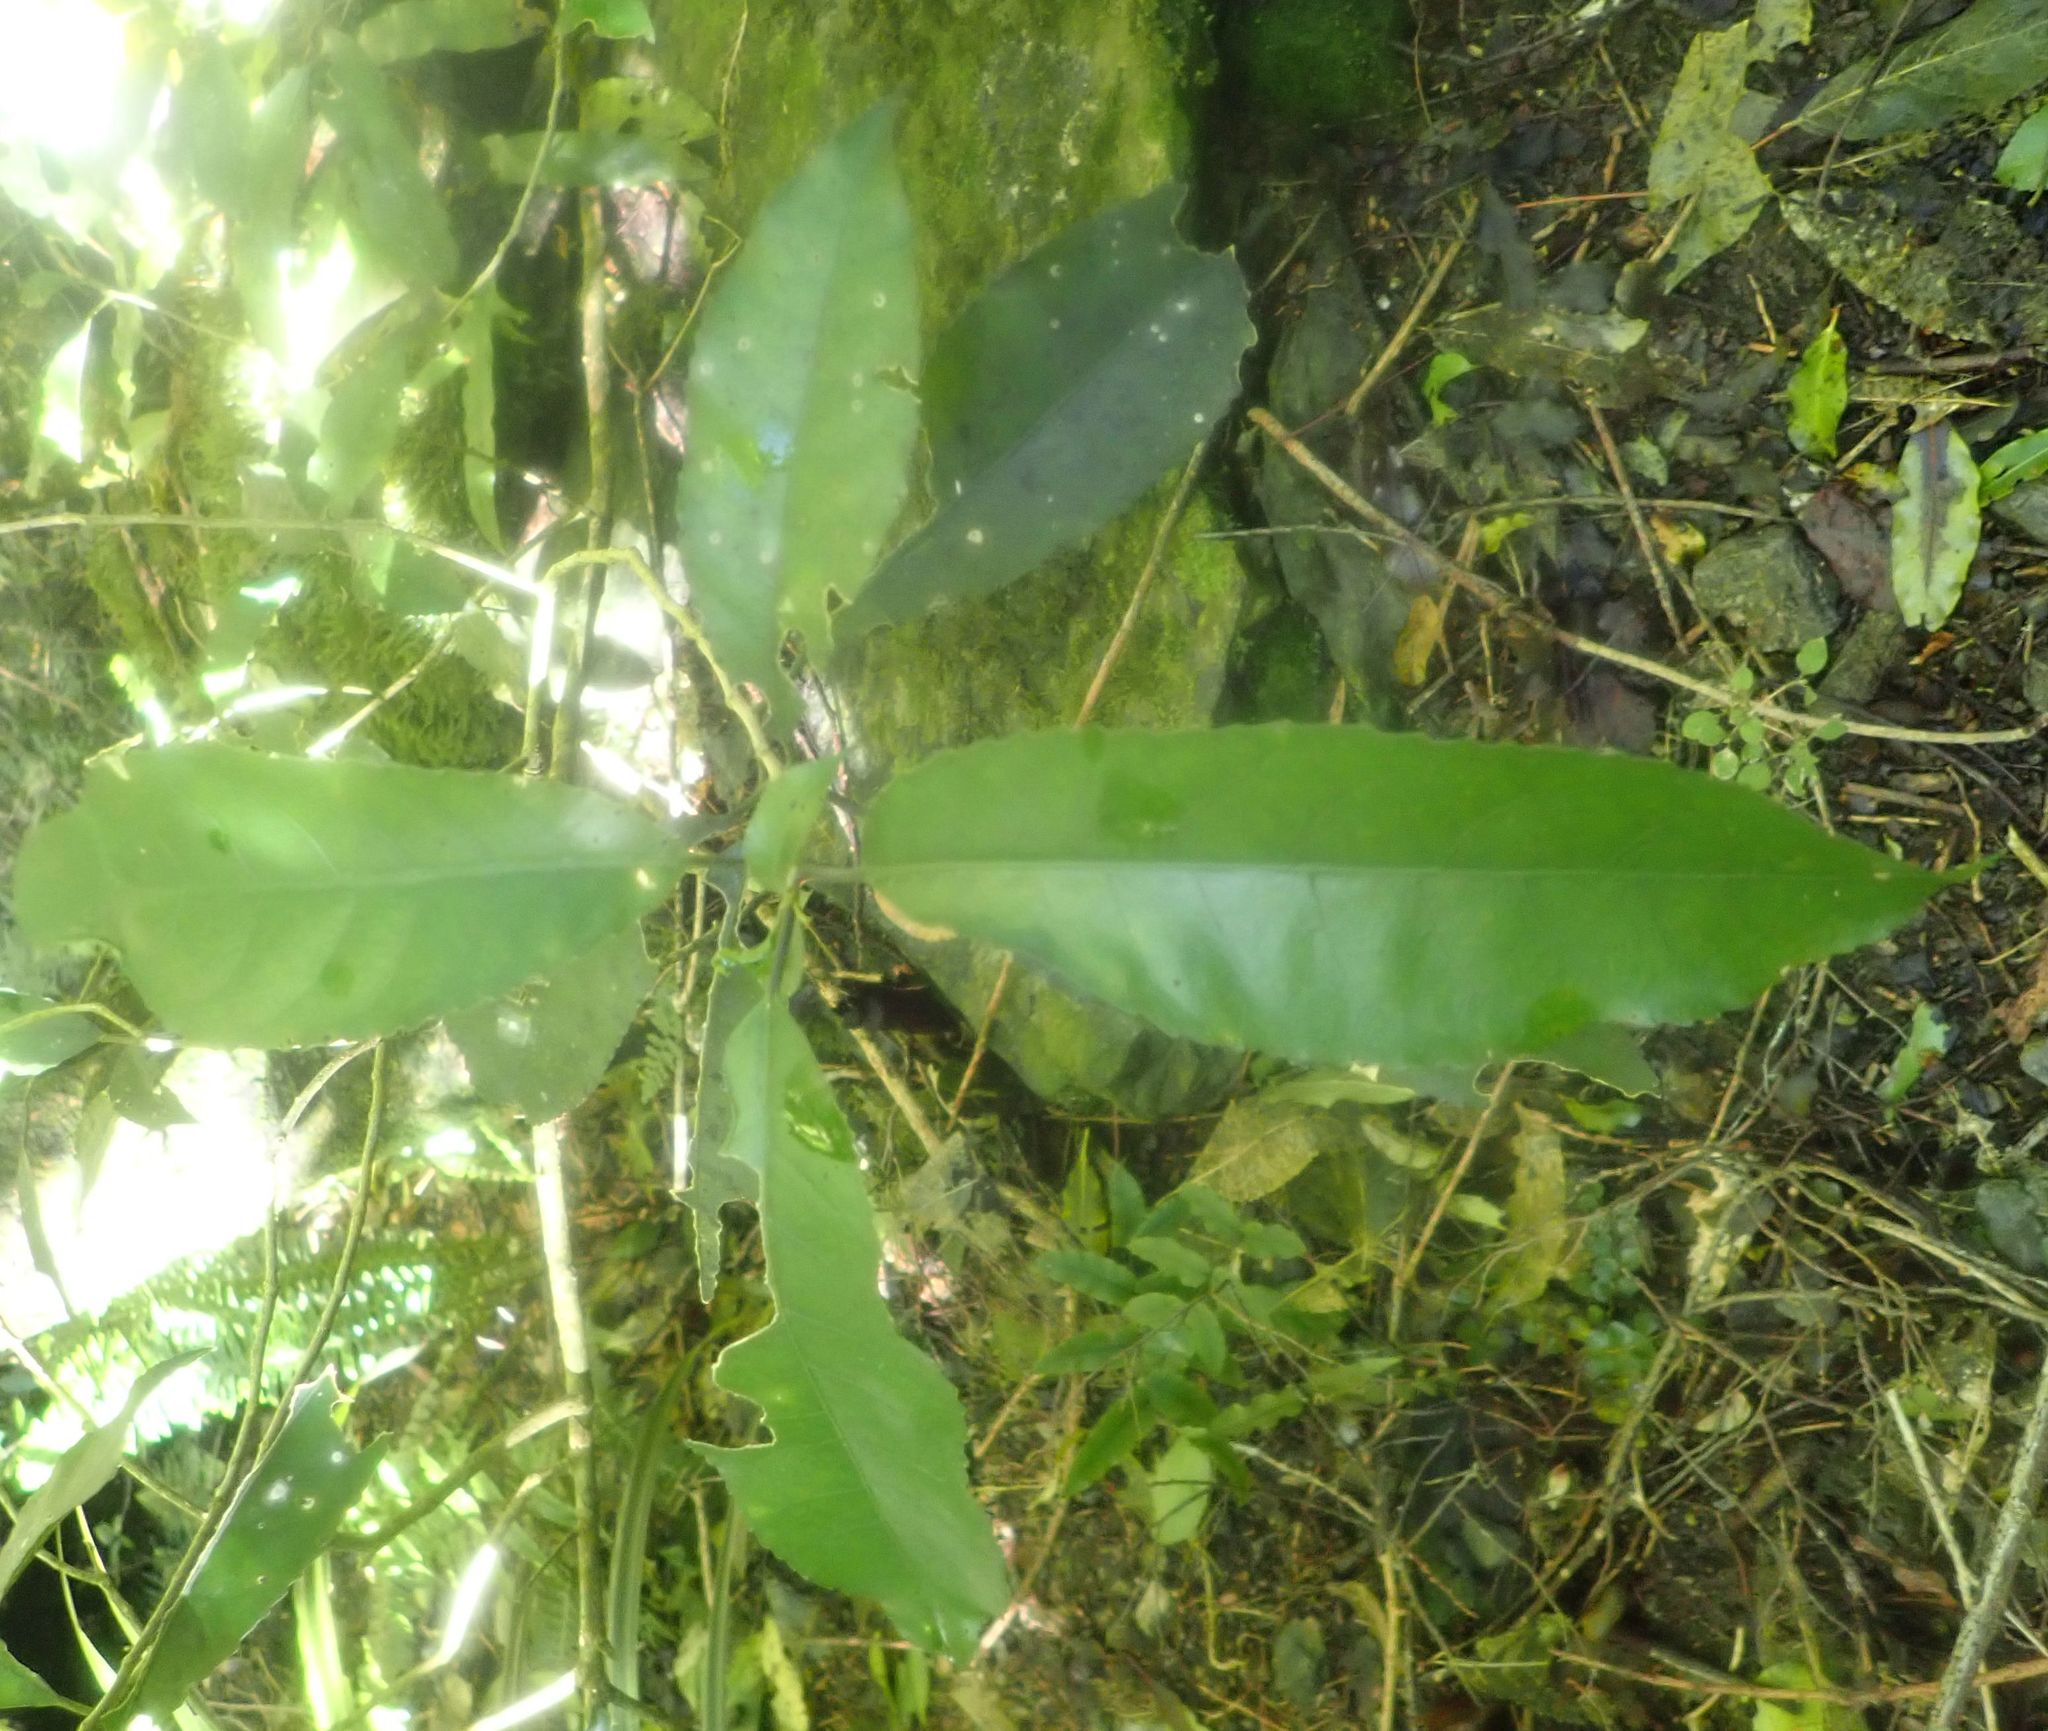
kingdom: Plantae
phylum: Tracheophyta
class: Magnoliopsida
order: Malpighiales
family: Violaceae
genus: Melicytus
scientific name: Melicytus ramiflorus
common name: Mahoe
